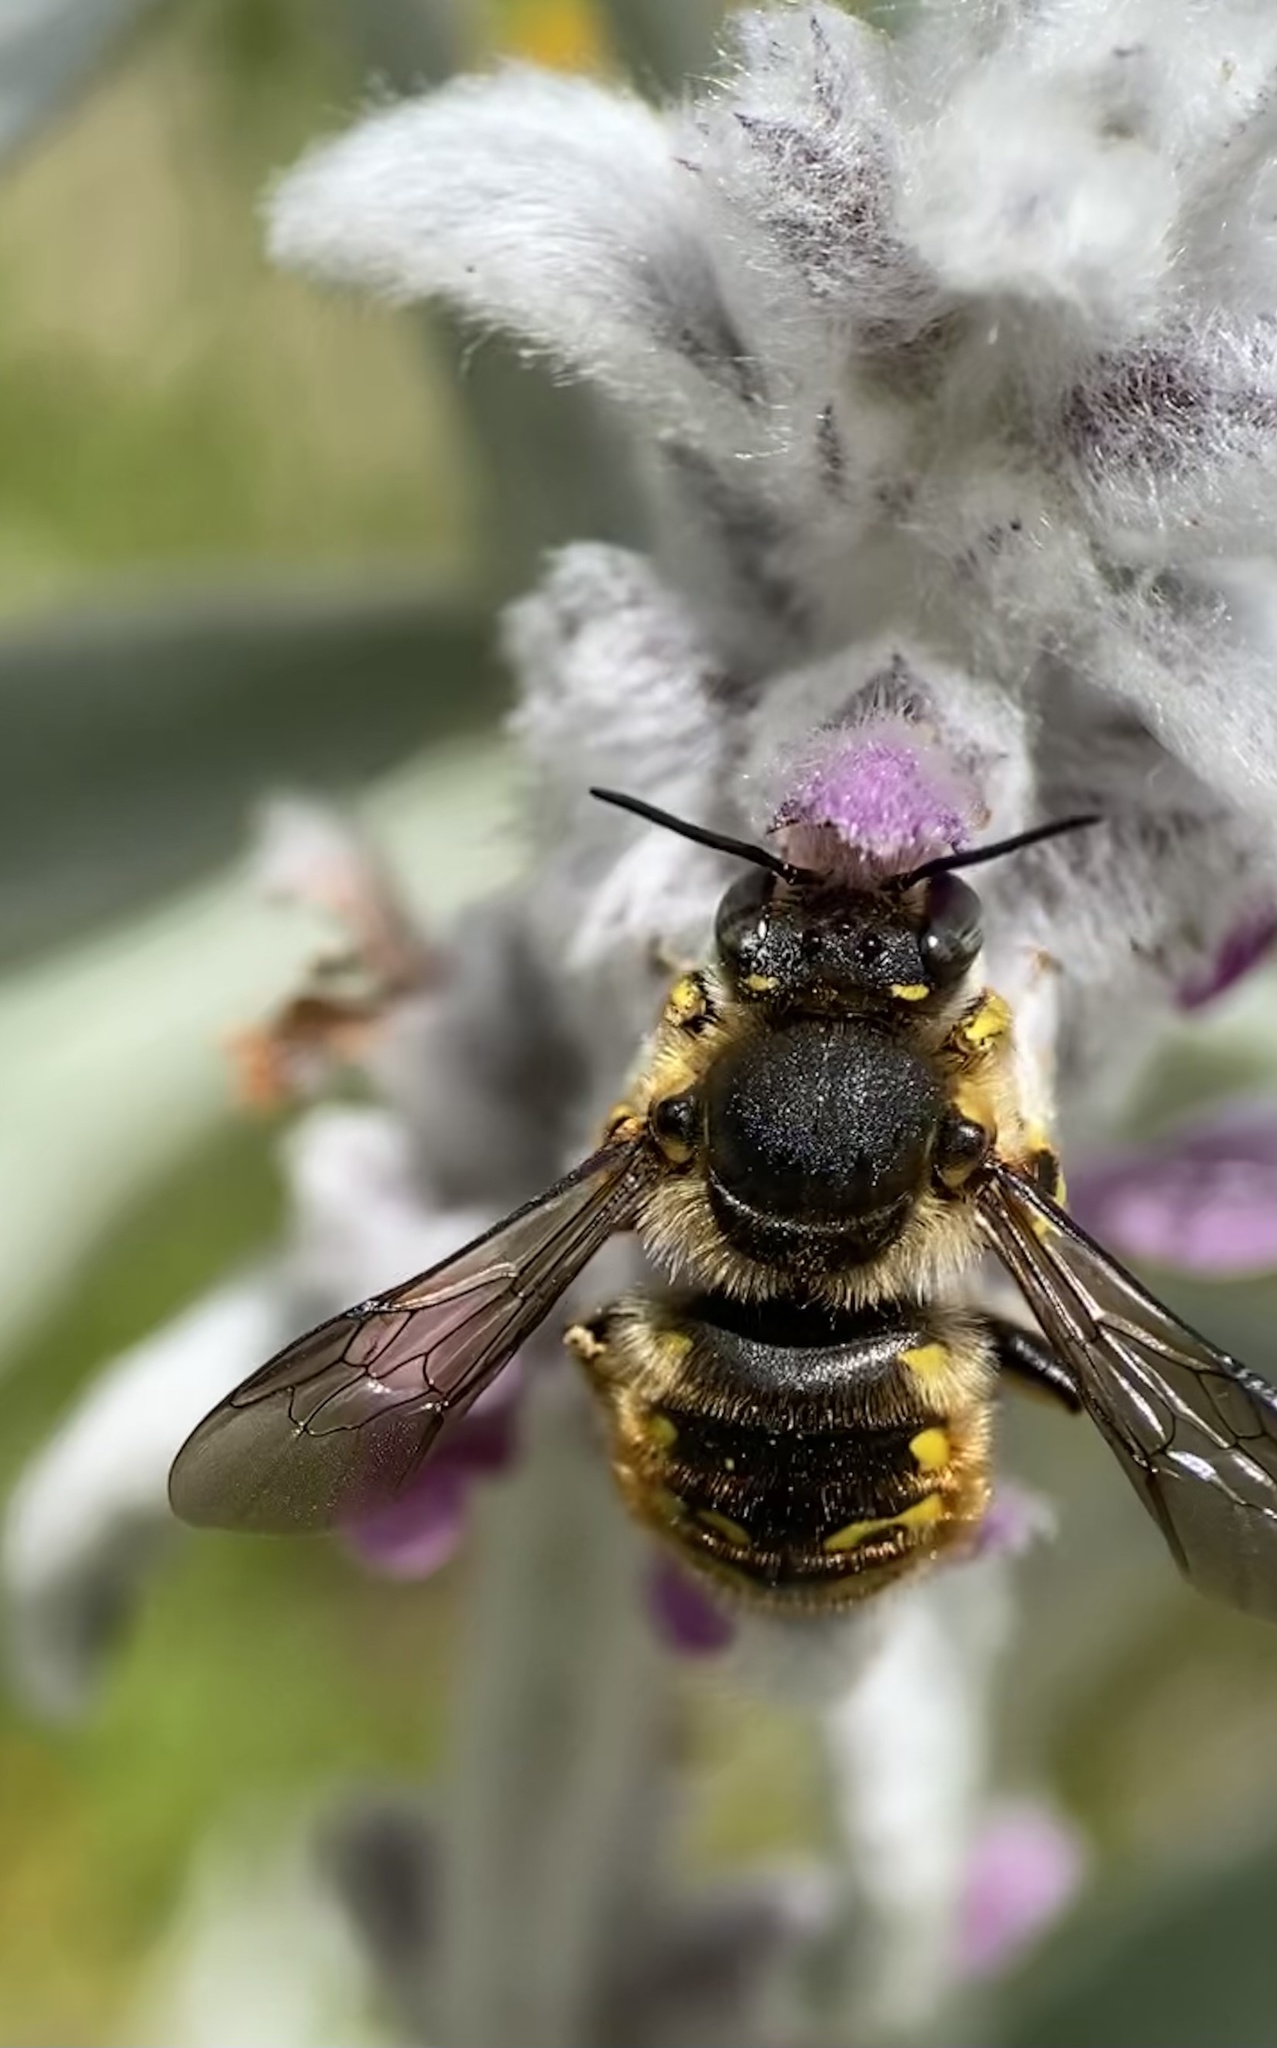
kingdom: Animalia
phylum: Arthropoda
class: Insecta
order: Hymenoptera
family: Megachilidae
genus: Anthidium
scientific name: Anthidium manicatum
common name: Wool carder bee
